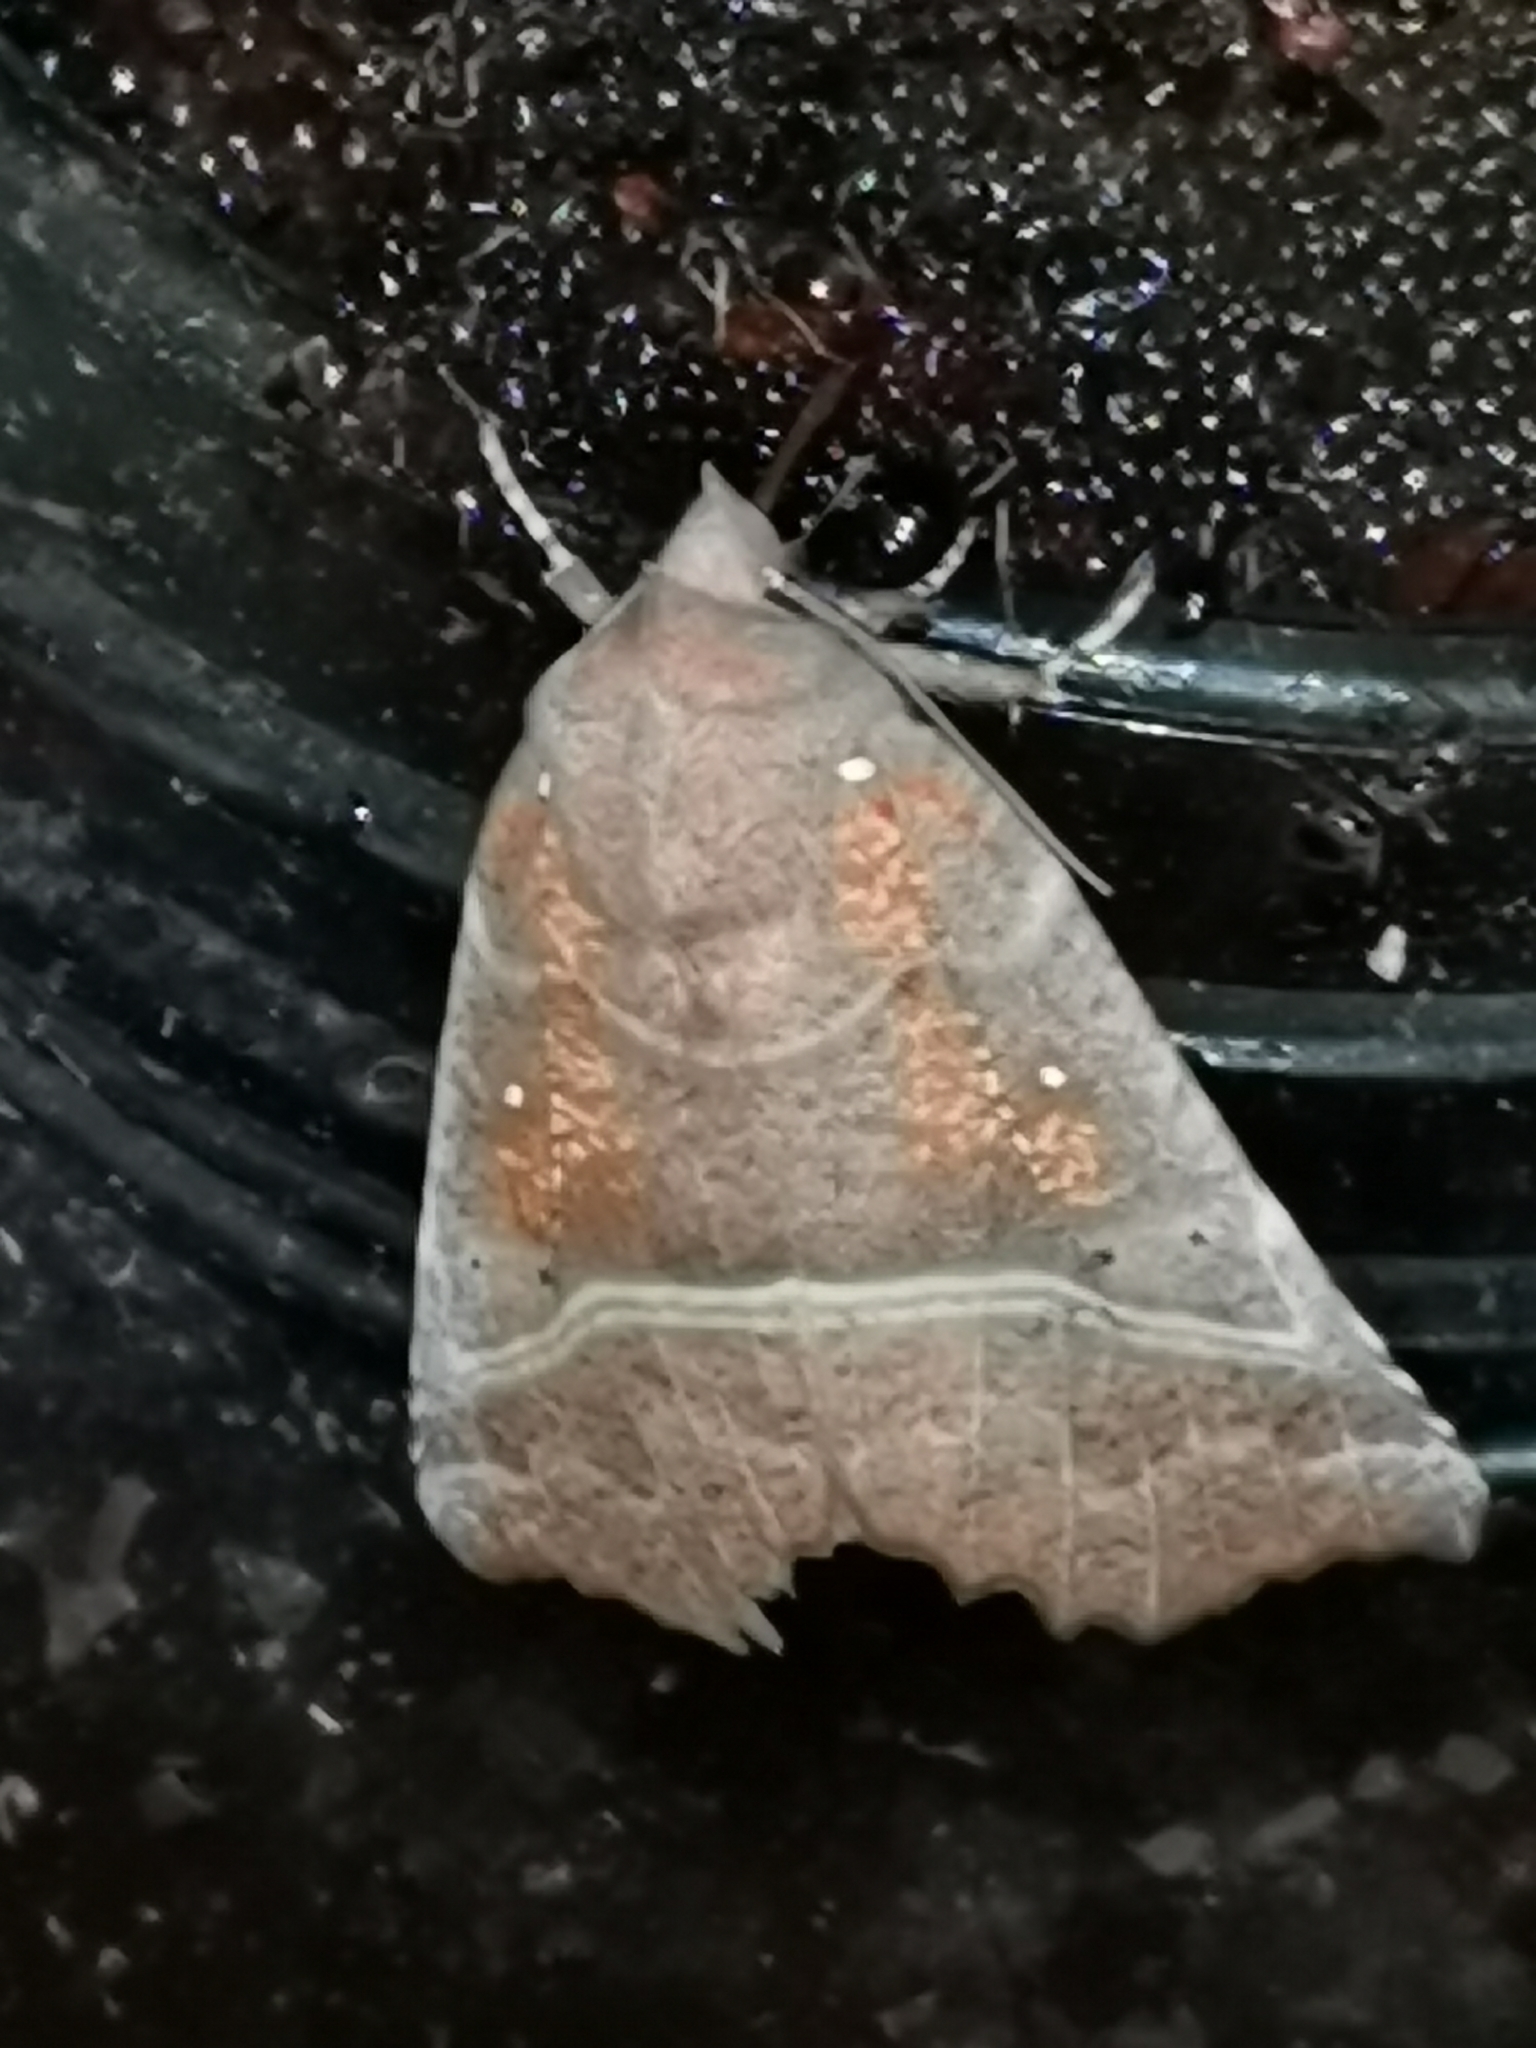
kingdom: Animalia
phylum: Arthropoda
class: Insecta
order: Lepidoptera
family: Erebidae
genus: Scoliopteryx
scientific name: Scoliopteryx libatrix
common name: Herald
